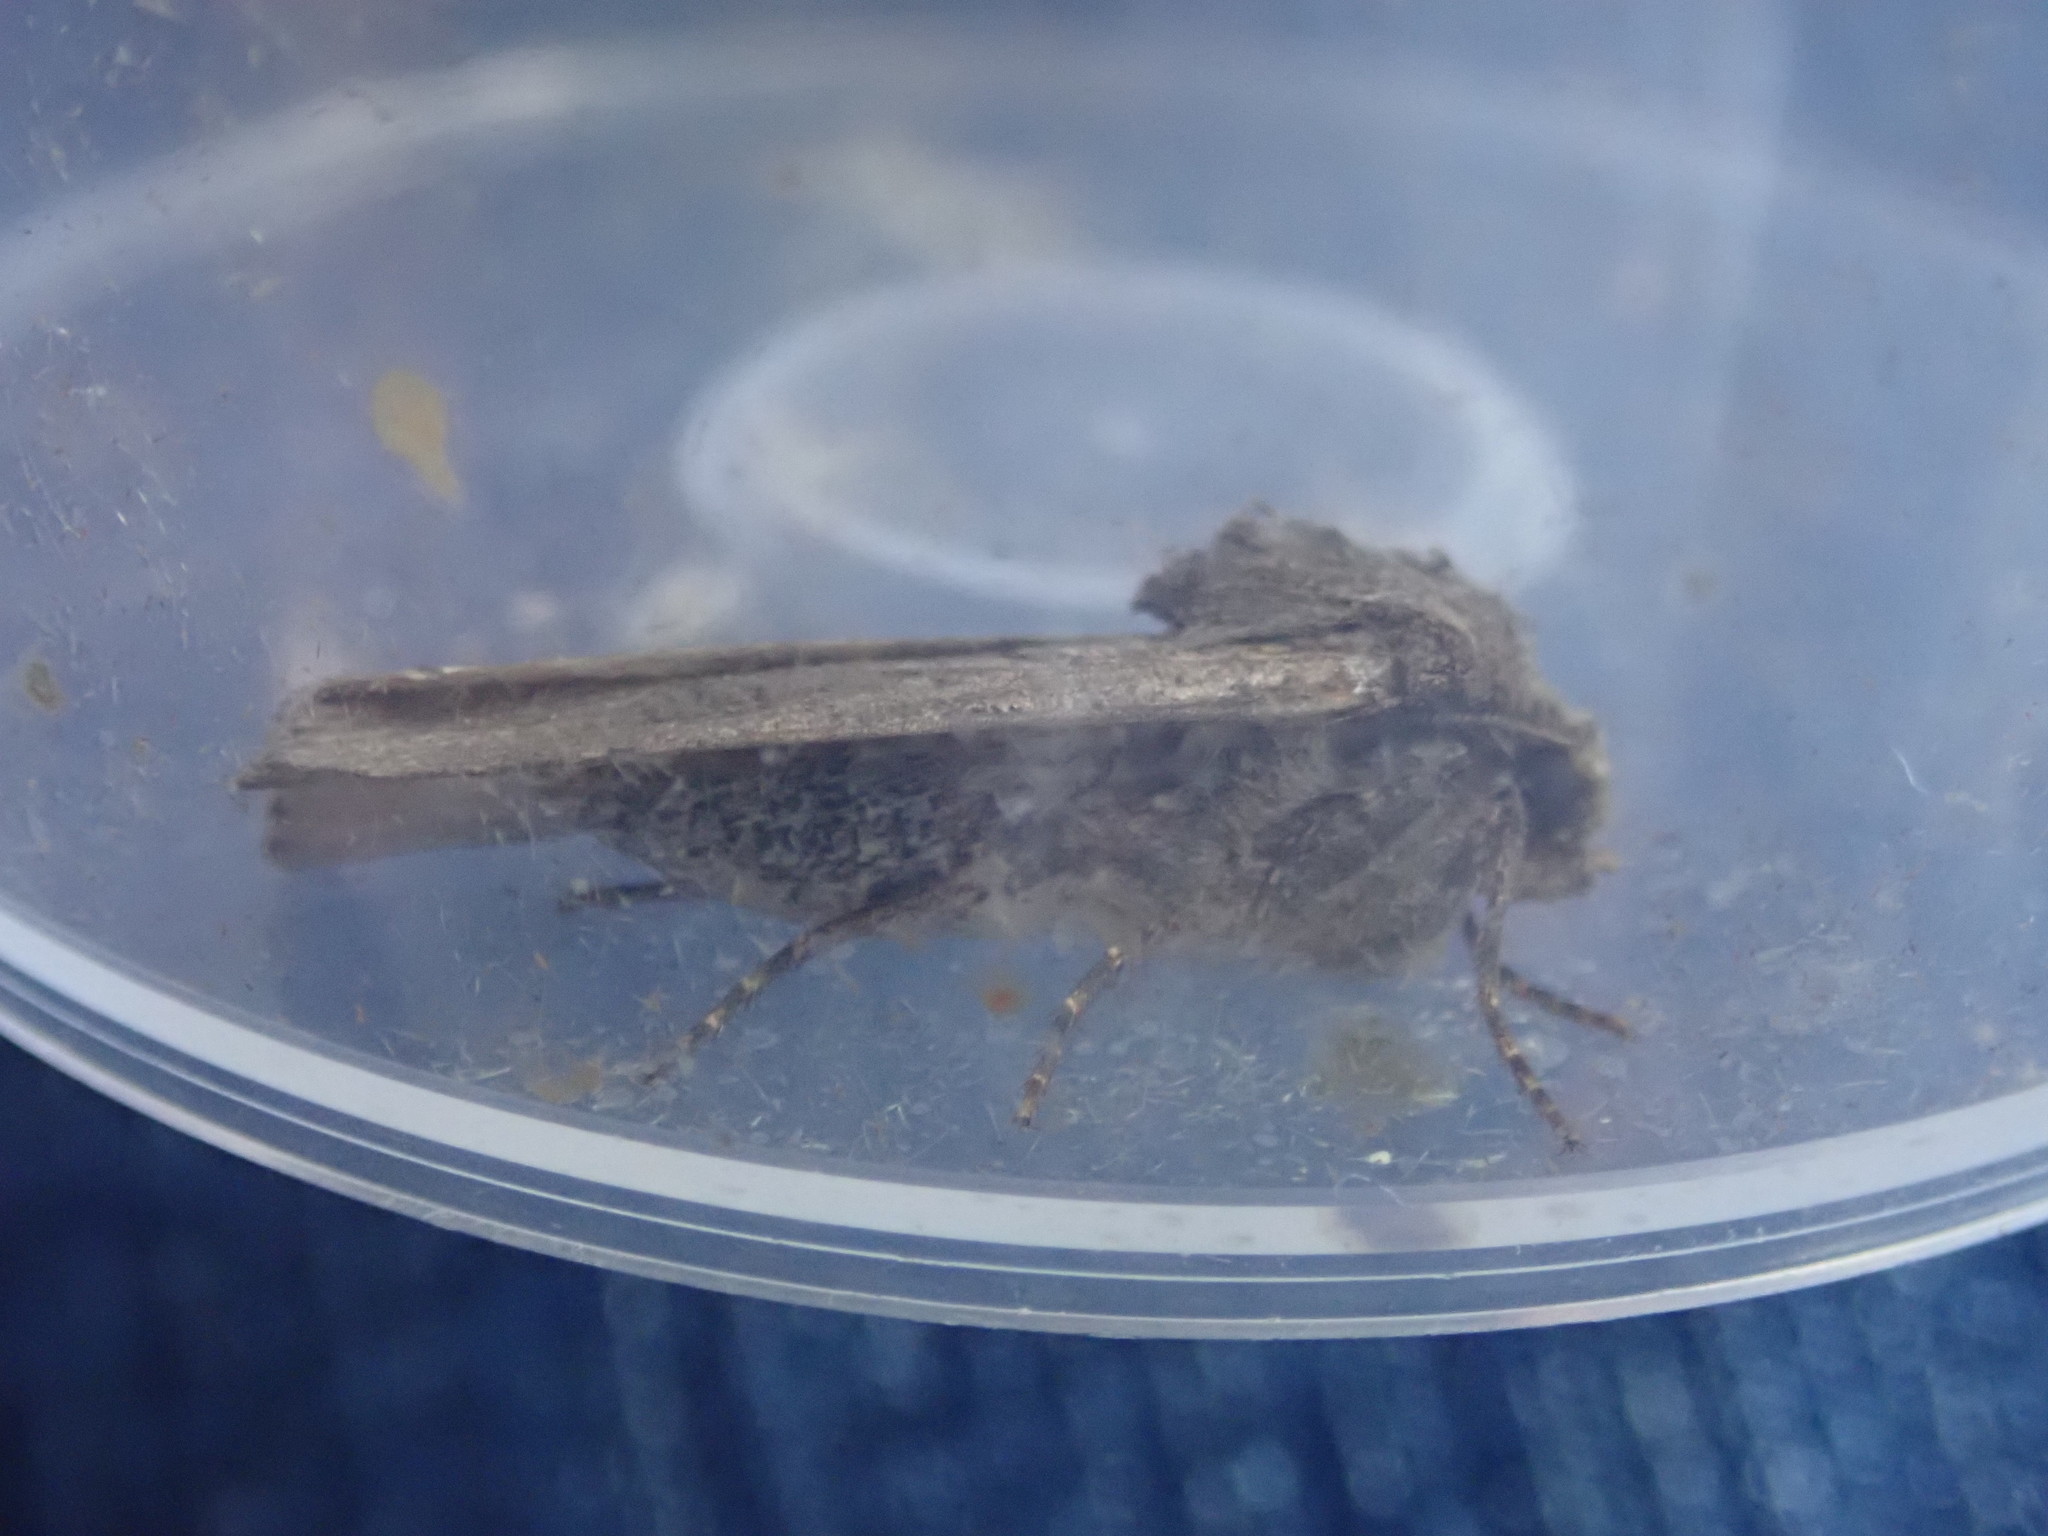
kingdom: Animalia
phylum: Arthropoda
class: Insecta
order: Lepidoptera
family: Noctuidae
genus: Agrotis
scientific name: Agrotis segetum
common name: Turnip moth
